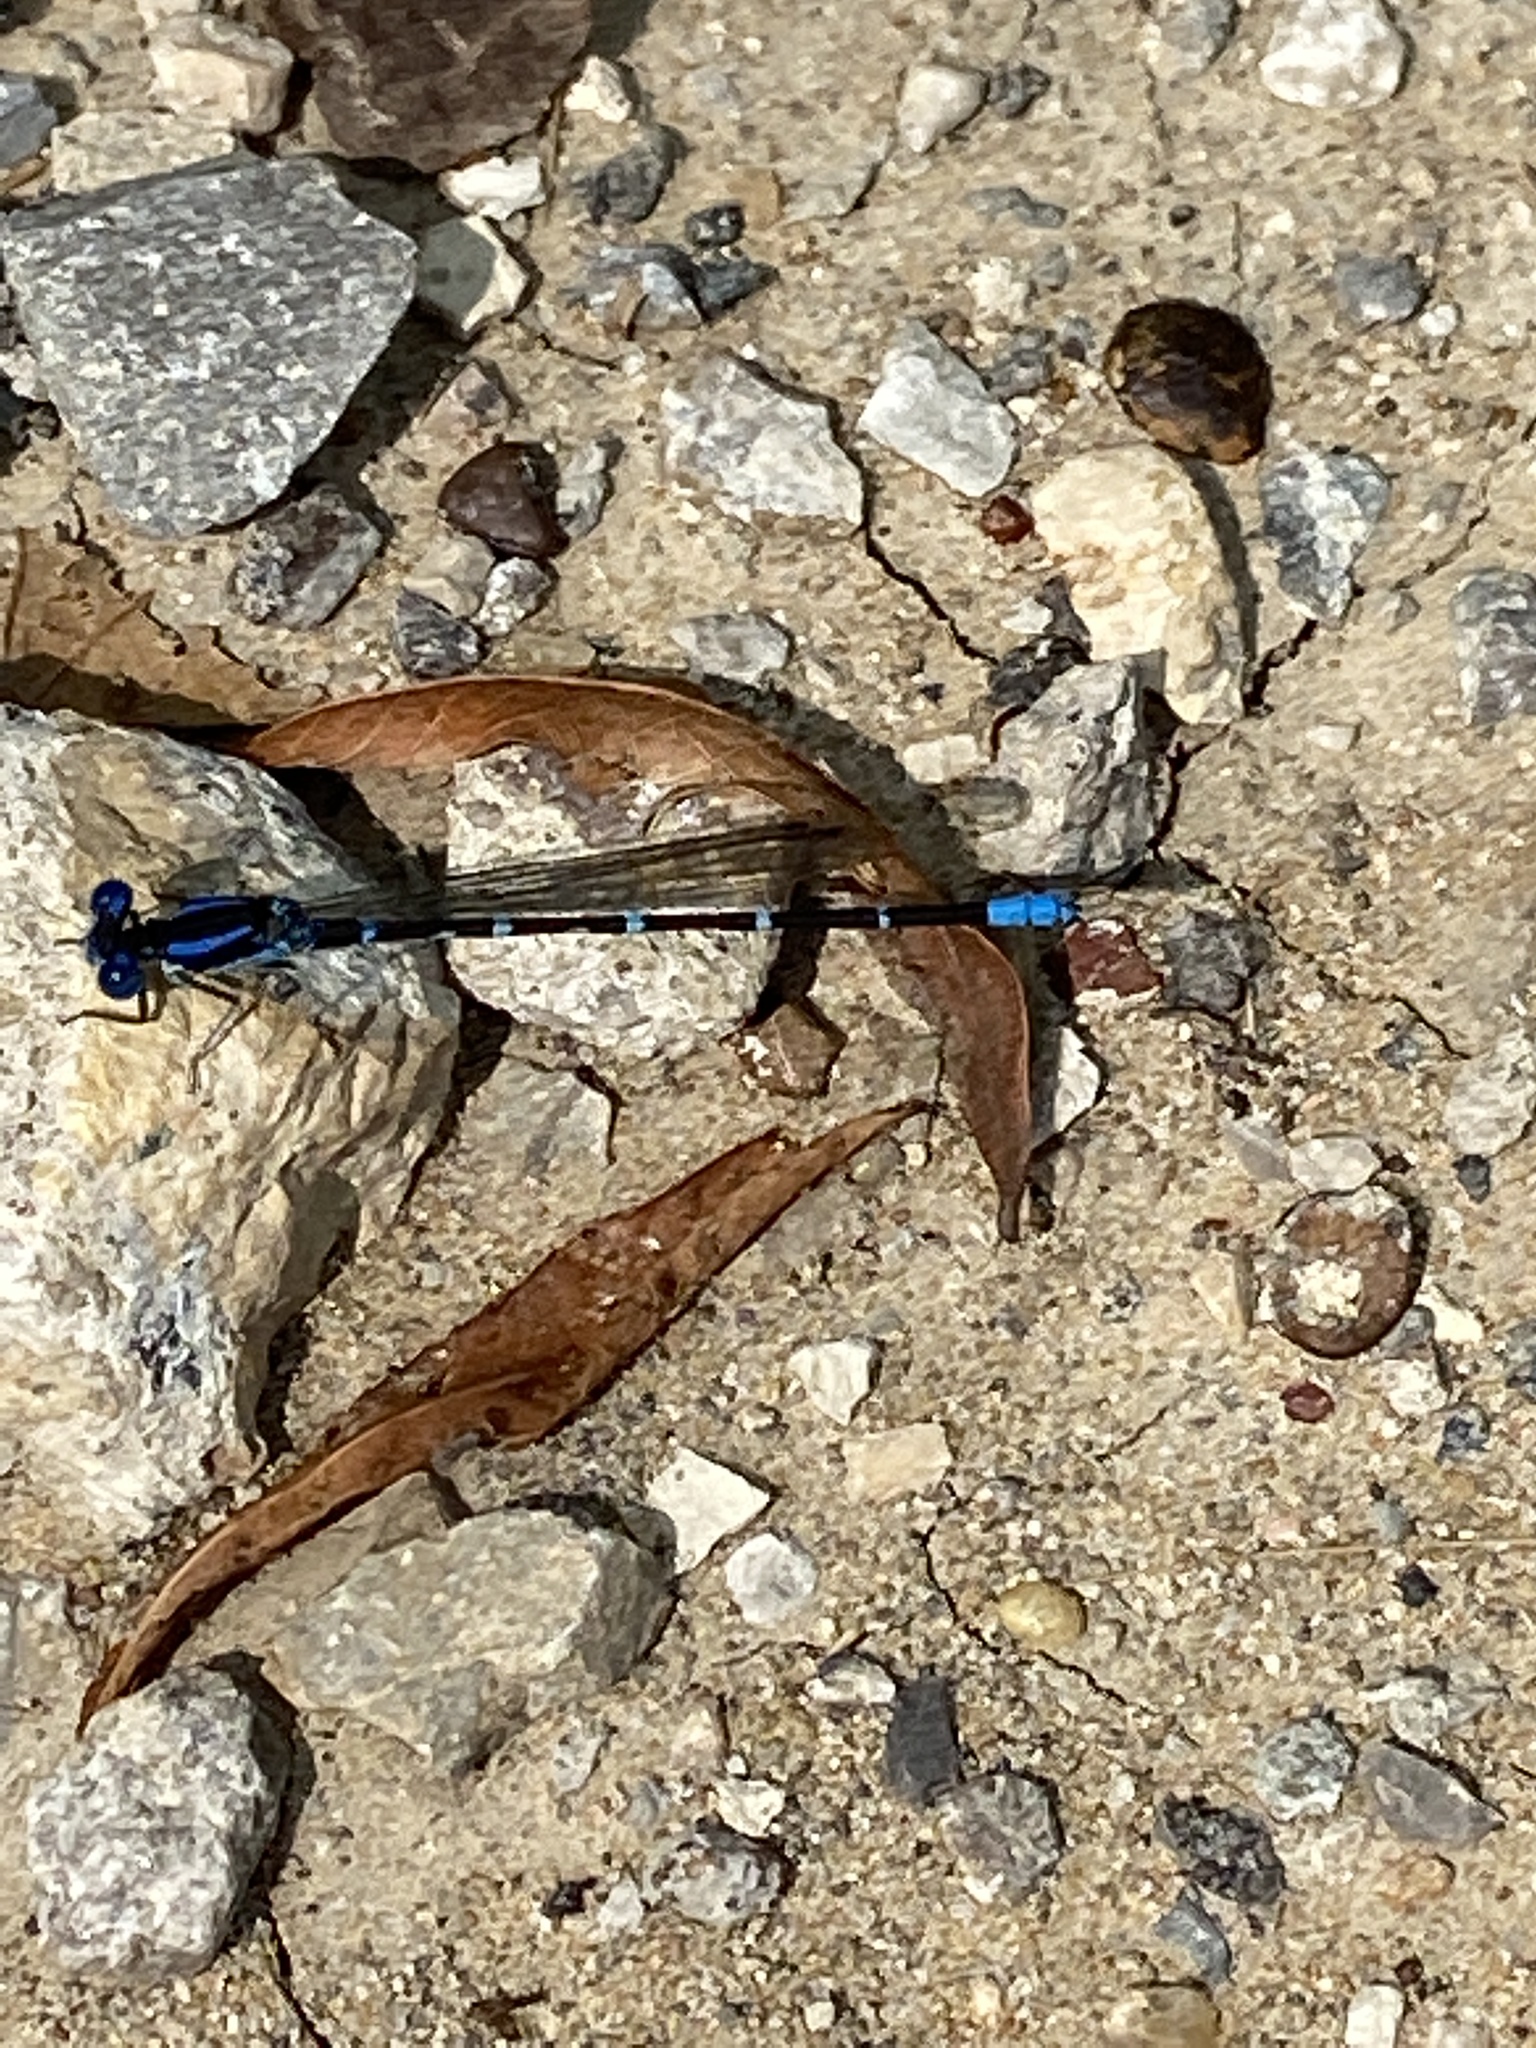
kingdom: Animalia
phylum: Arthropoda
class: Insecta
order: Odonata
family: Coenagrionidae
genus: Argia
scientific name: Argia sedula
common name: Blue-ringed dancer
